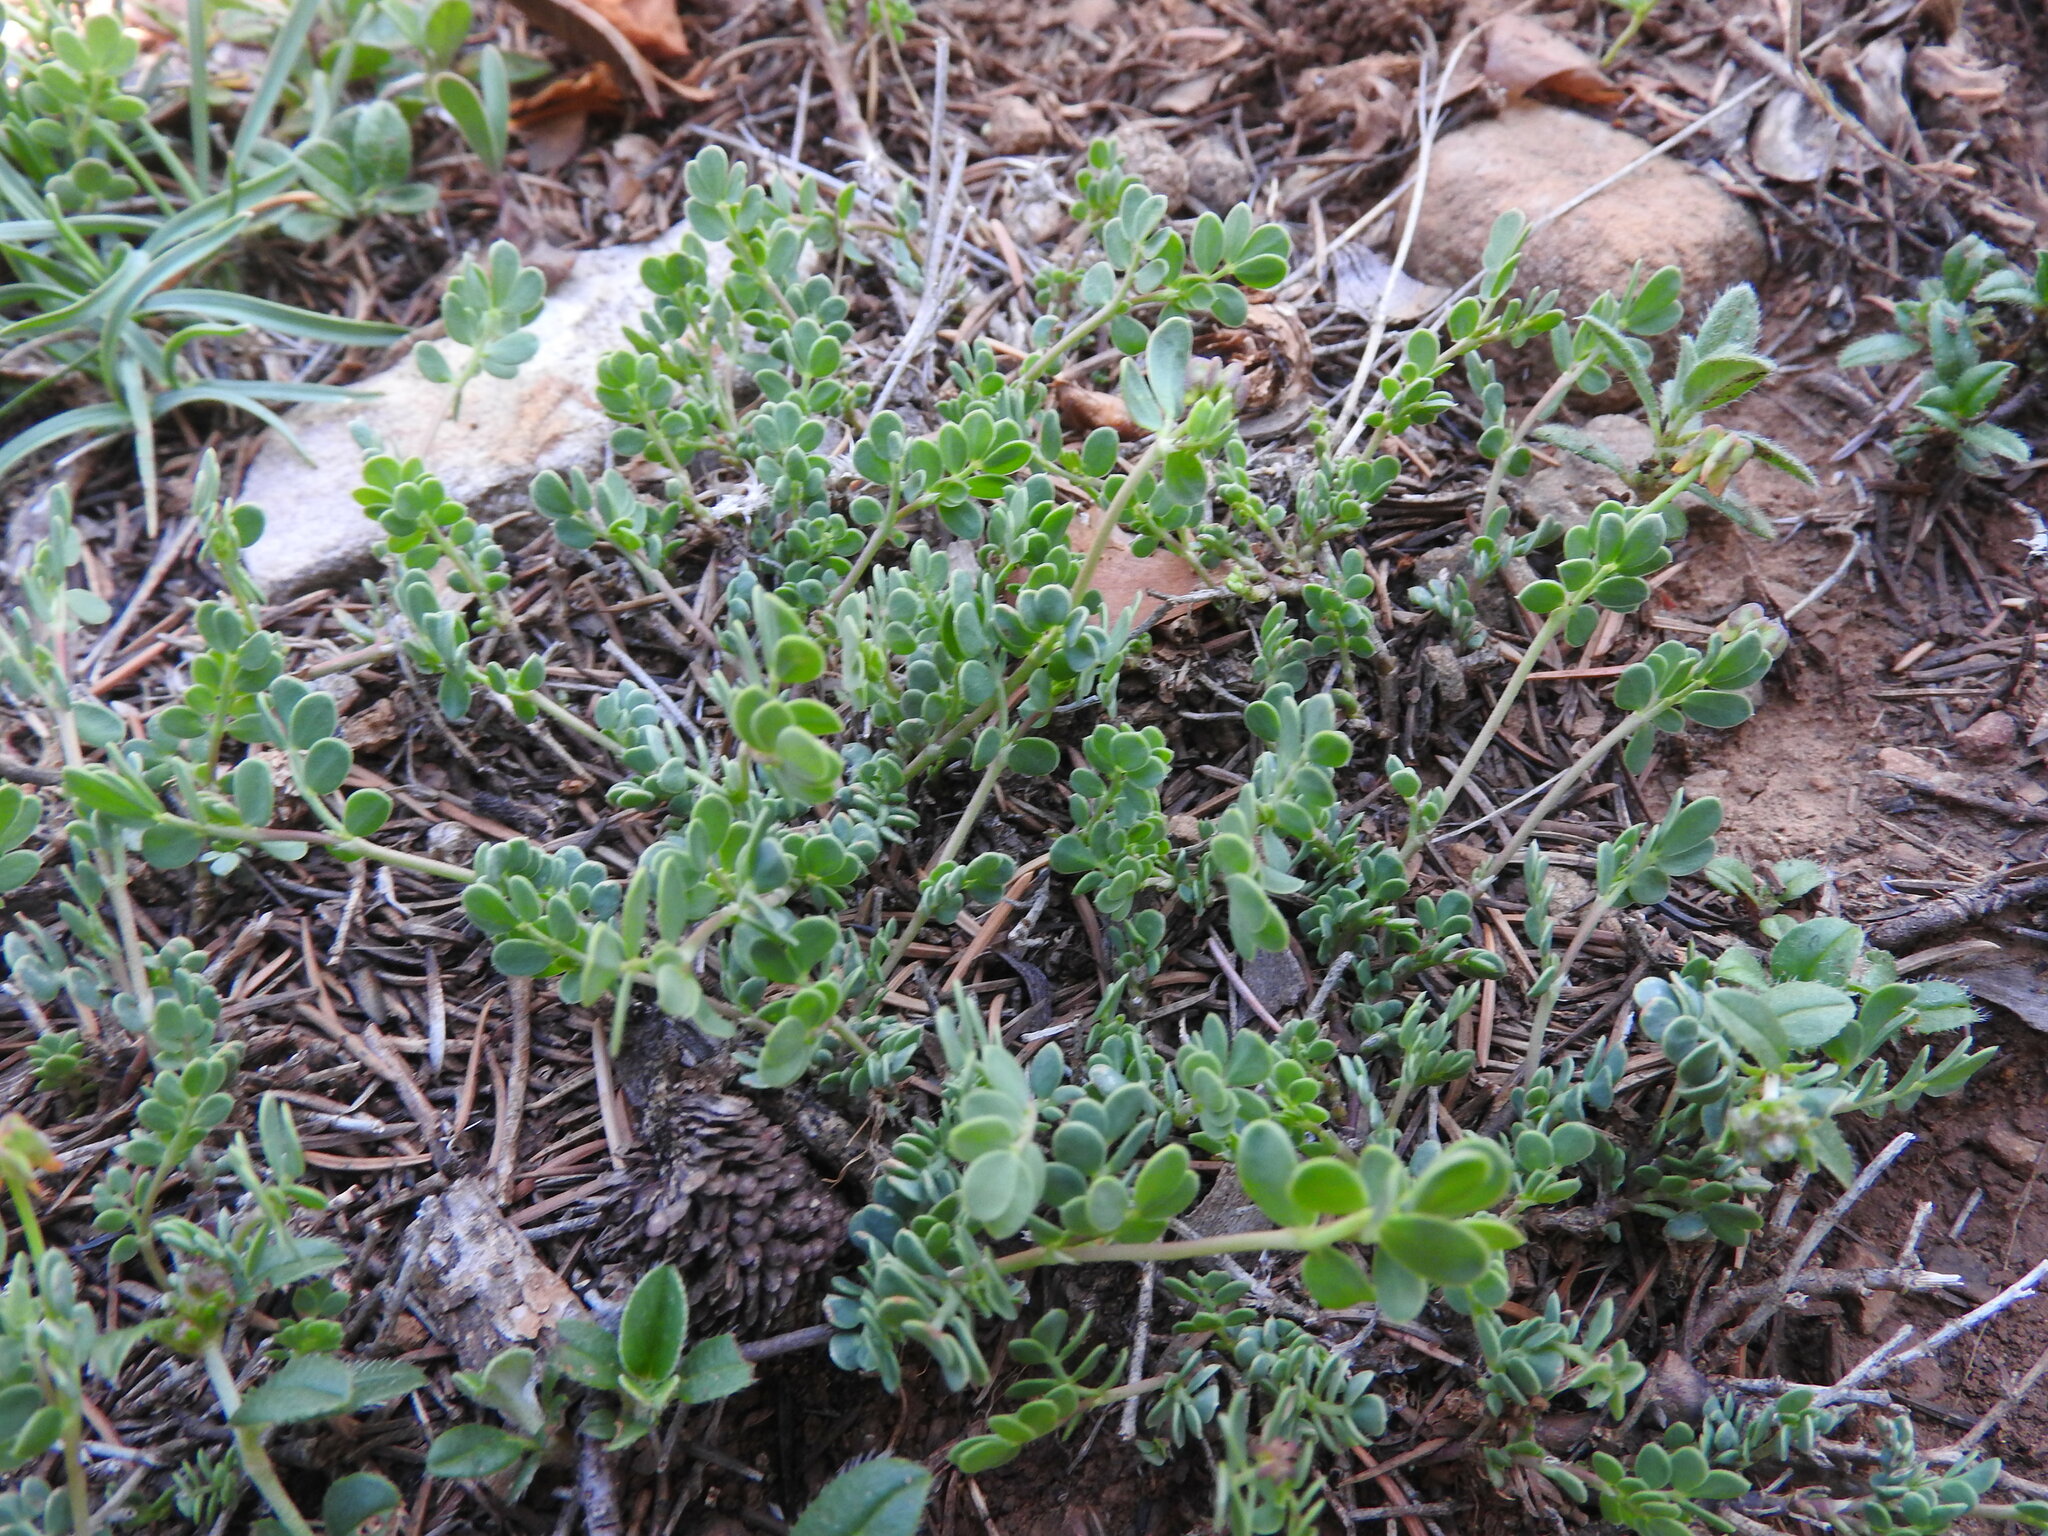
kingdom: Plantae
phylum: Tracheophyta
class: Magnoliopsida
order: Fabales
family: Fabaceae
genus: Coronilla
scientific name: Coronilla minima
